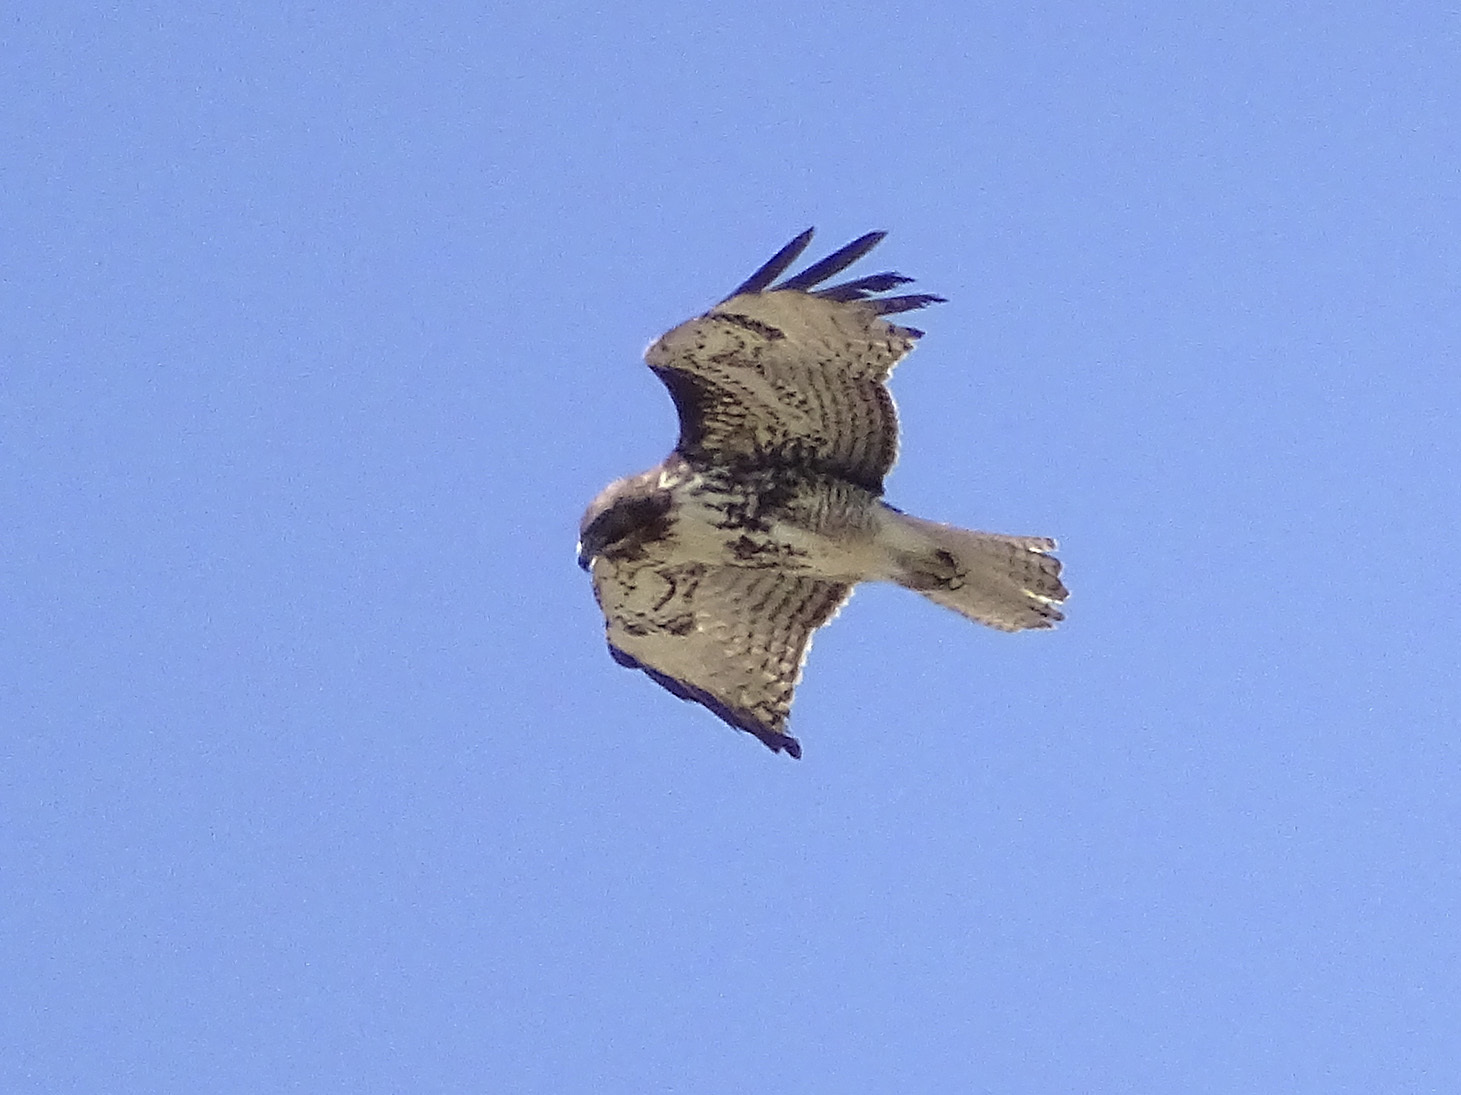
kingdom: Animalia
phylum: Chordata
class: Aves
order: Accipitriformes
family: Accipitridae
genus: Buteo
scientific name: Buteo jamaicensis
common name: Red-tailed hawk
